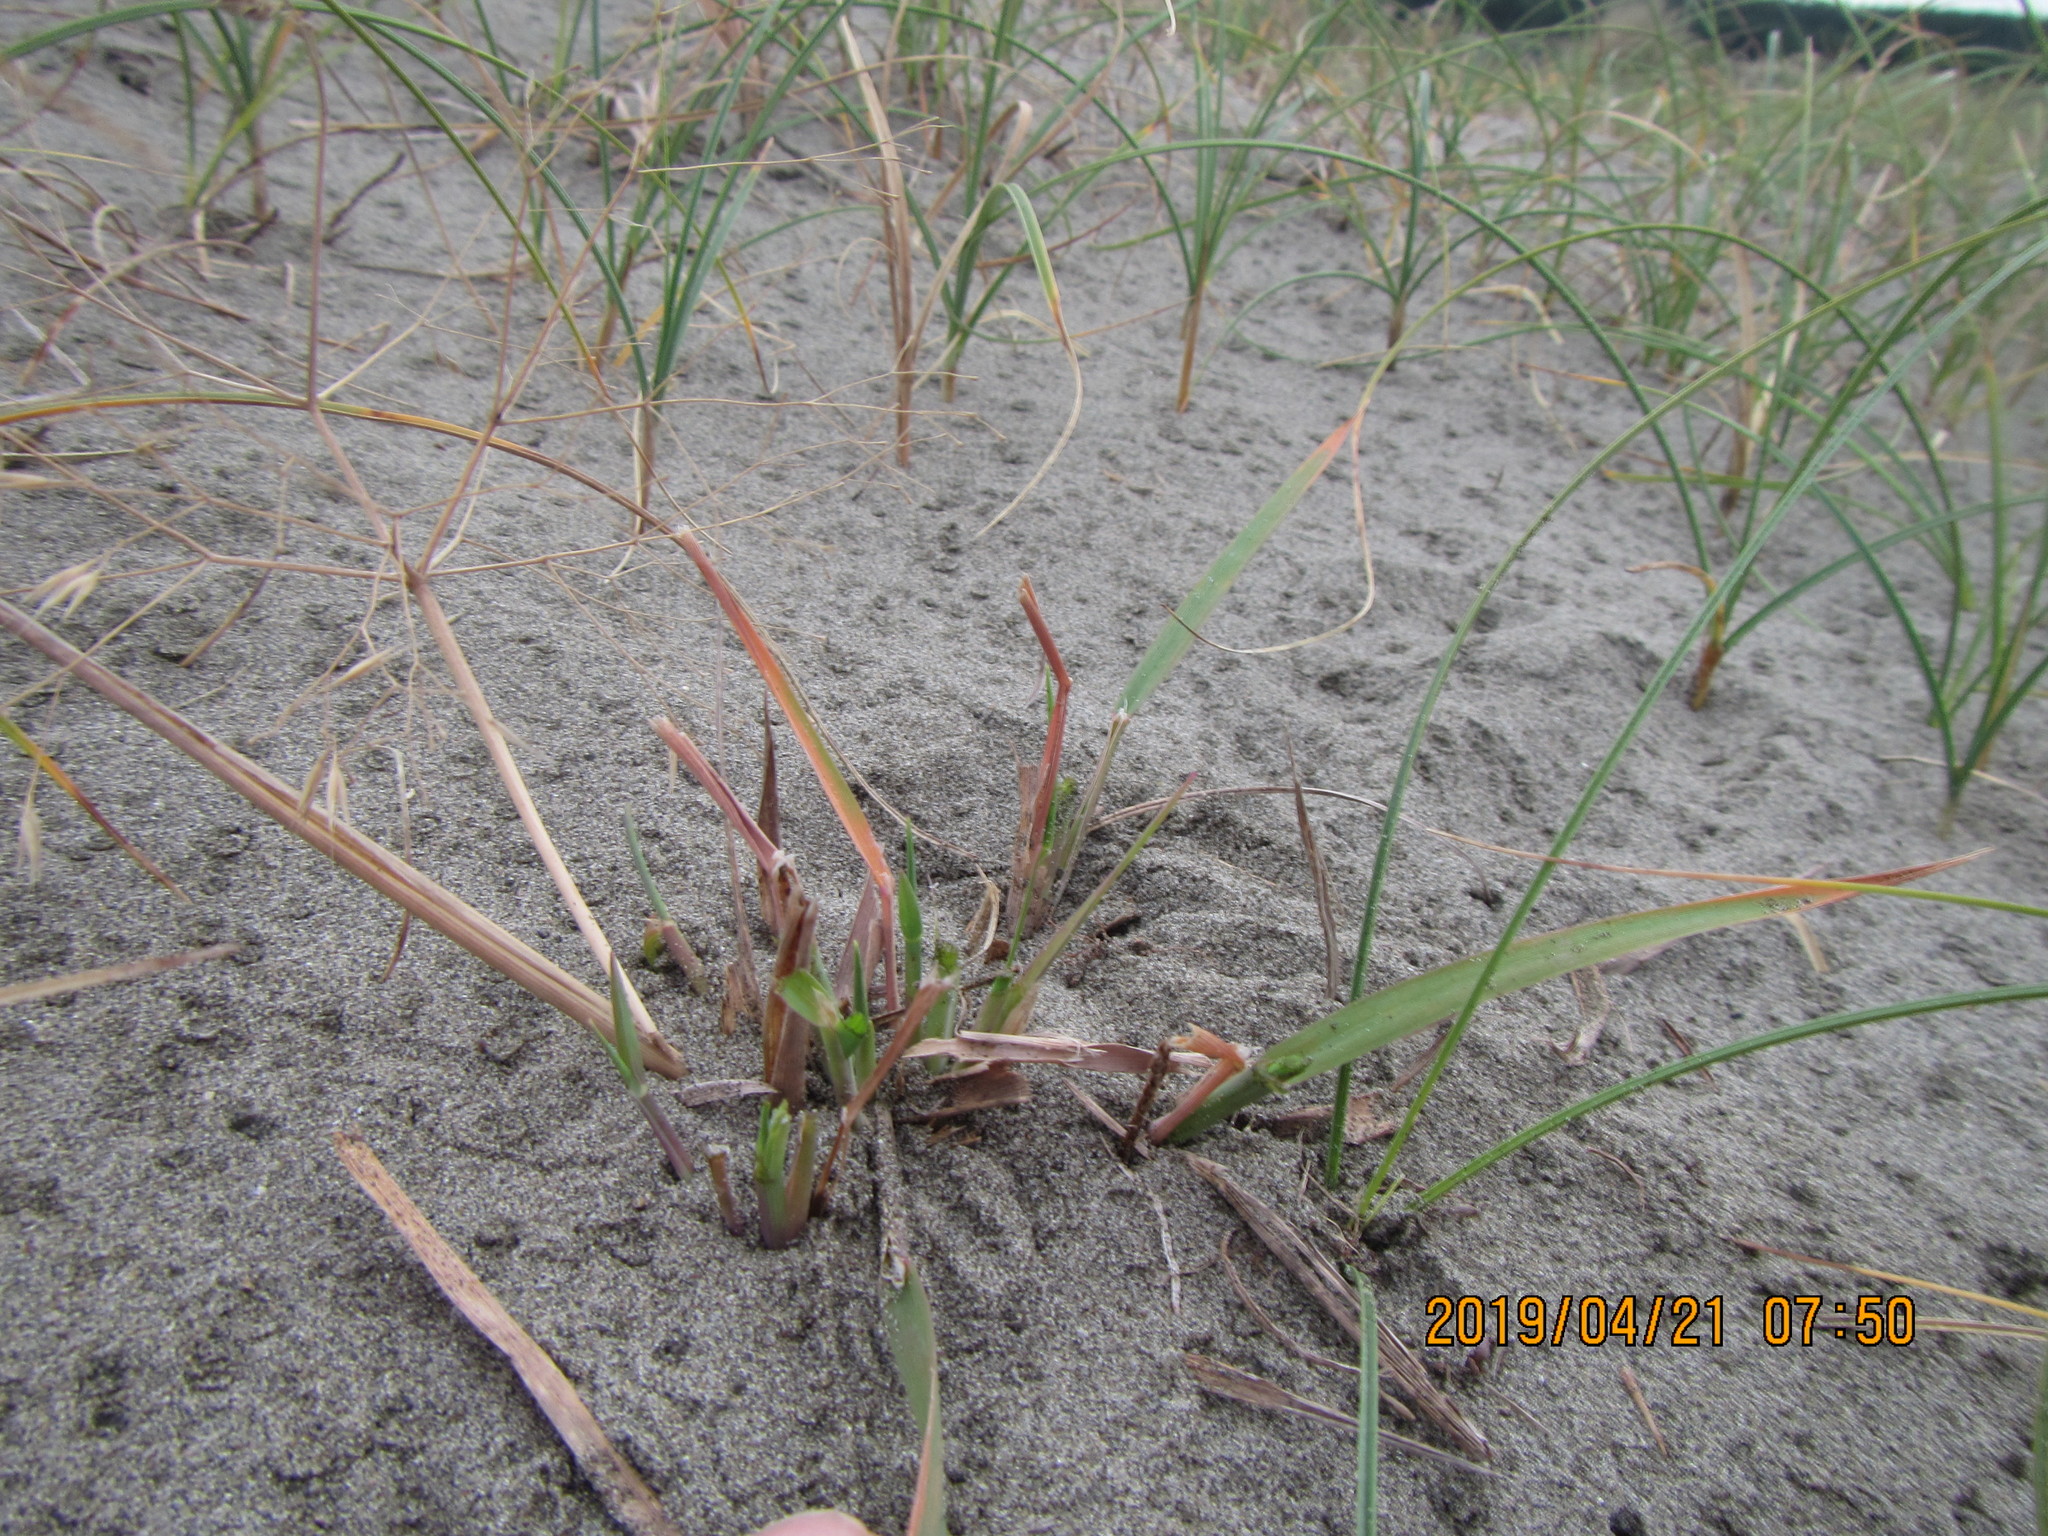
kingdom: Plantae
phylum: Tracheophyta
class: Liliopsida
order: Poales
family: Poaceae
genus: Lachnagrostis
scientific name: Lachnagrostis billardierei
